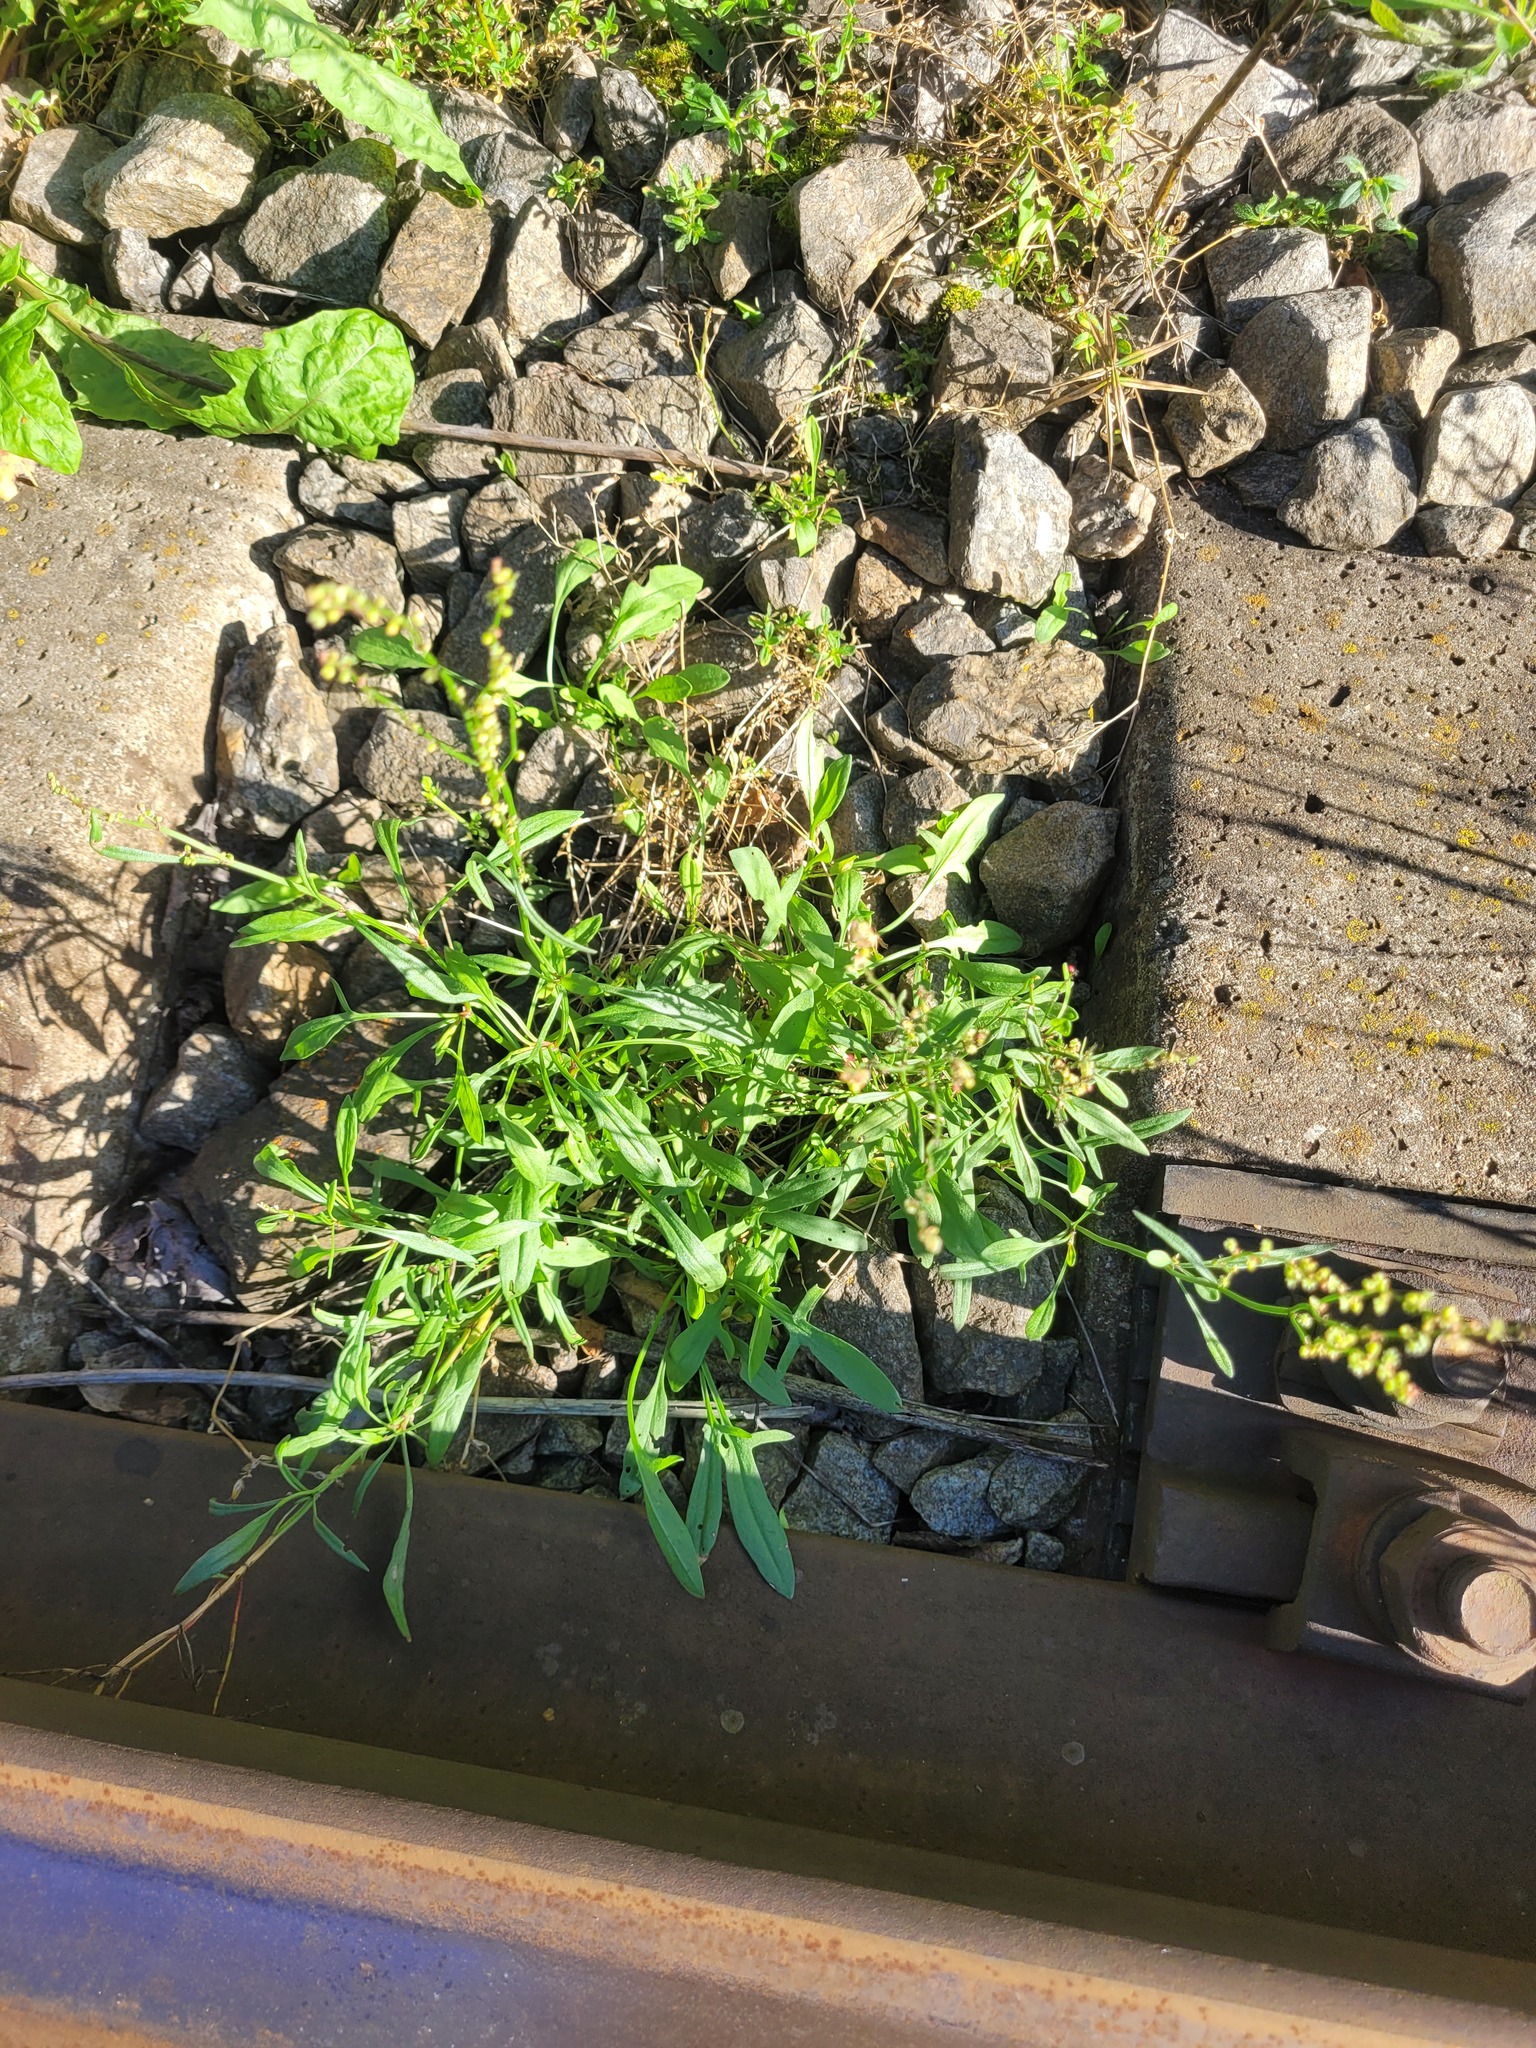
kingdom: Plantae
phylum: Tracheophyta
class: Magnoliopsida
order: Caryophyllales
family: Polygonaceae
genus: Rumex
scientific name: Rumex acetosella
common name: Common sheep sorrel
